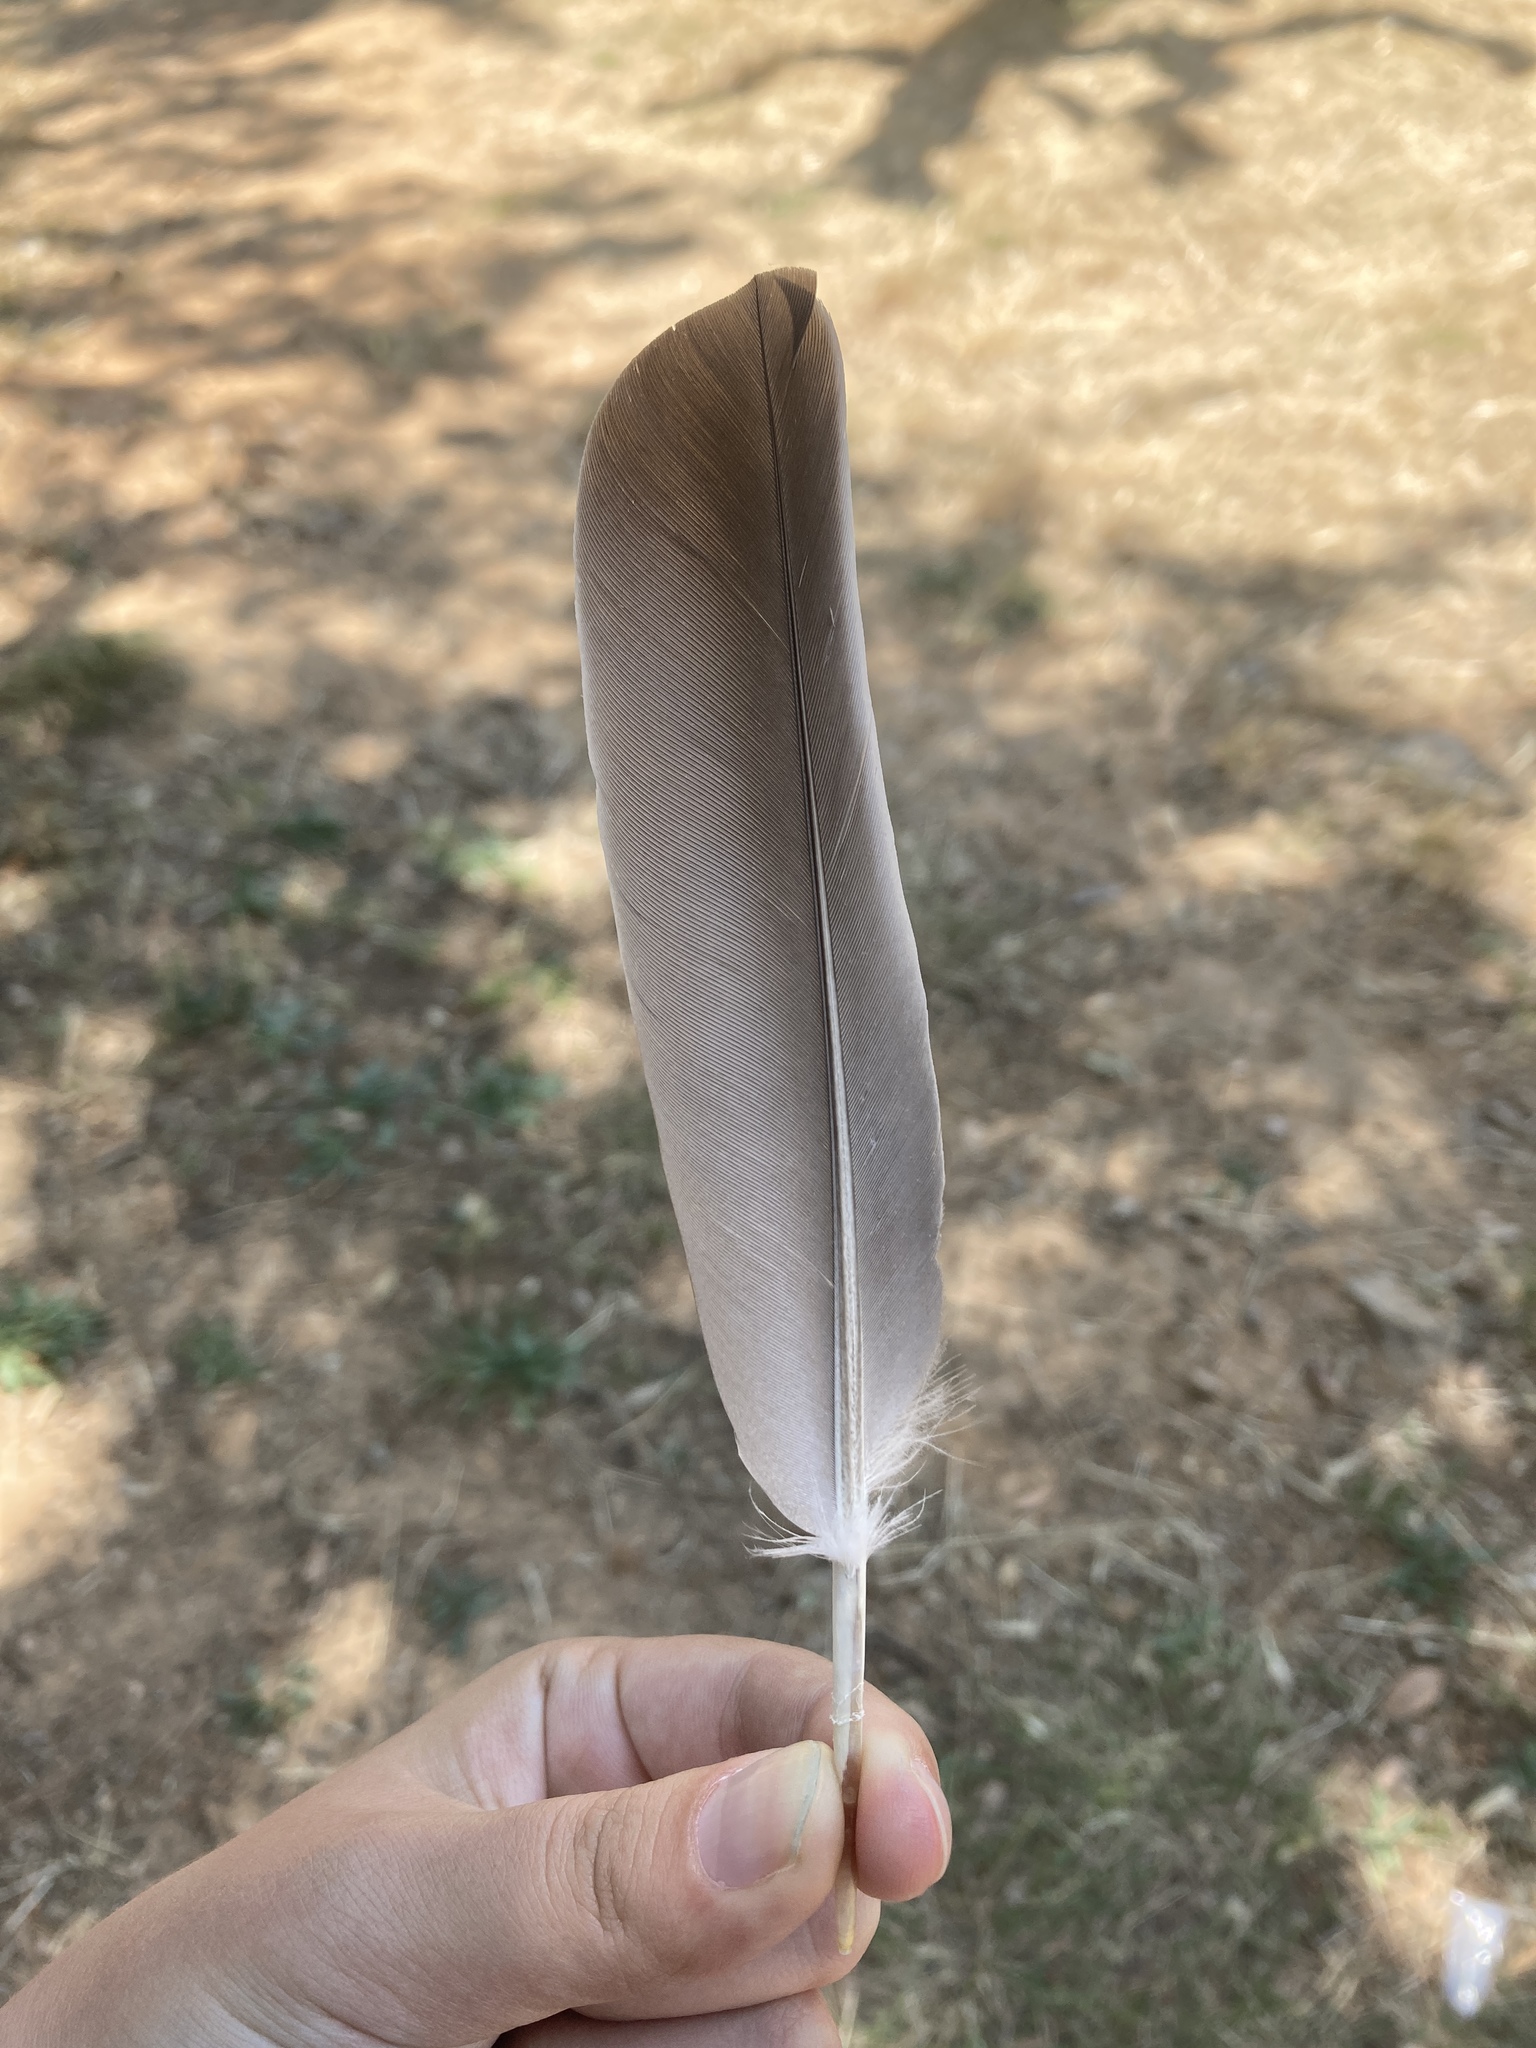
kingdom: Animalia
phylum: Chordata
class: Aves
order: Columbiformes
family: Columbidae
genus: Columba
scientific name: Columba palumbus
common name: Common wood pigeon
